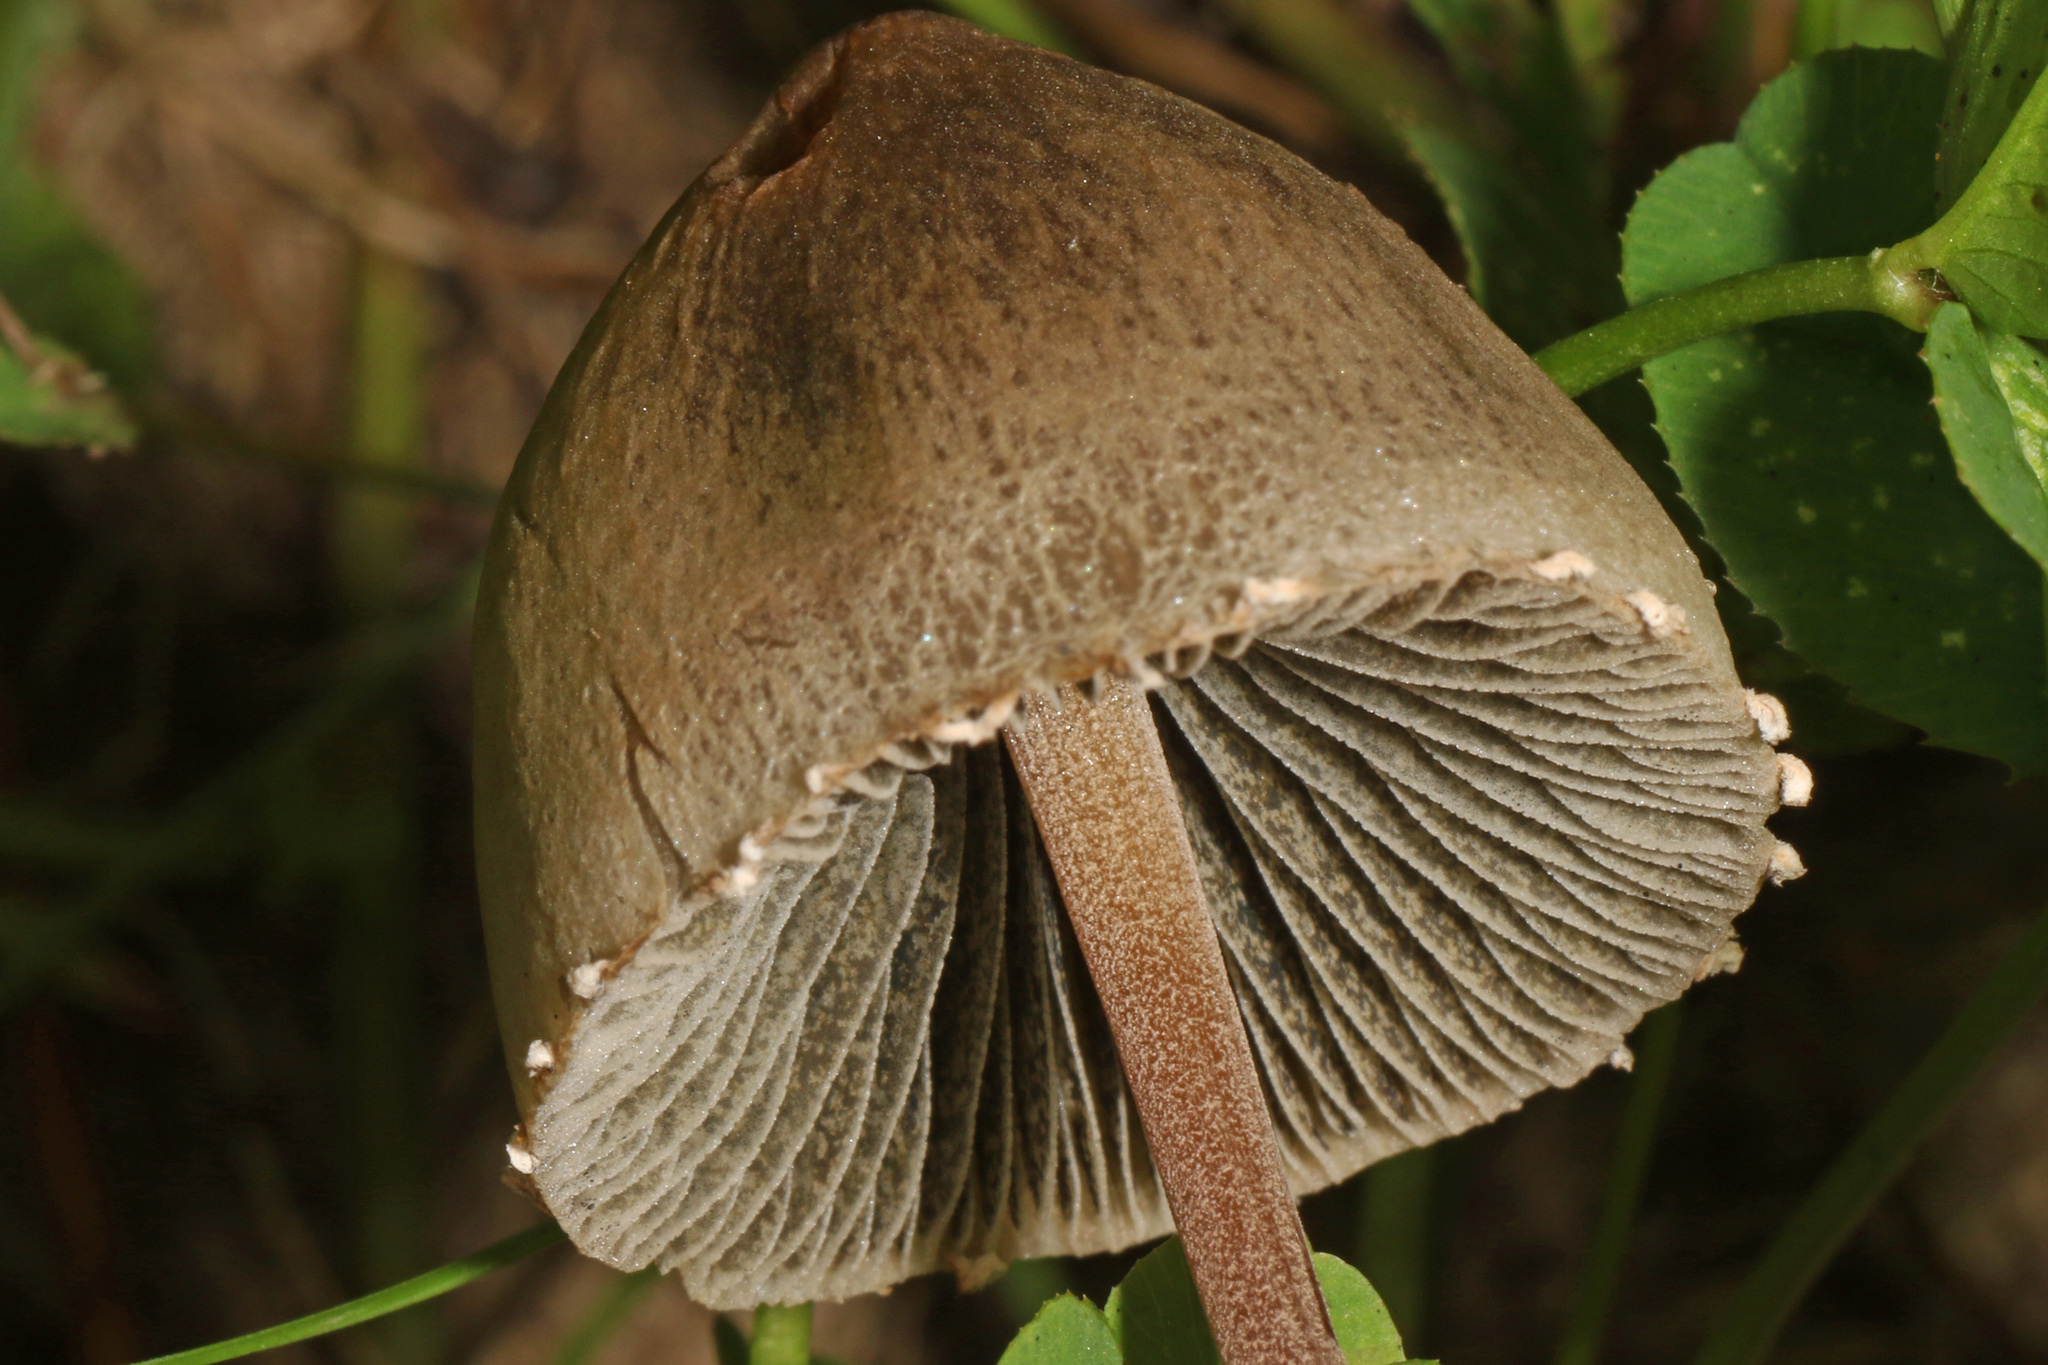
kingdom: Fungi
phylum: Basidiomycota
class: Agaricomycetes
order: Agaricales
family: Bolbitiaceae
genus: Panaeolus
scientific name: Panaeolus papilionaceus
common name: Petticoat mottlegill
